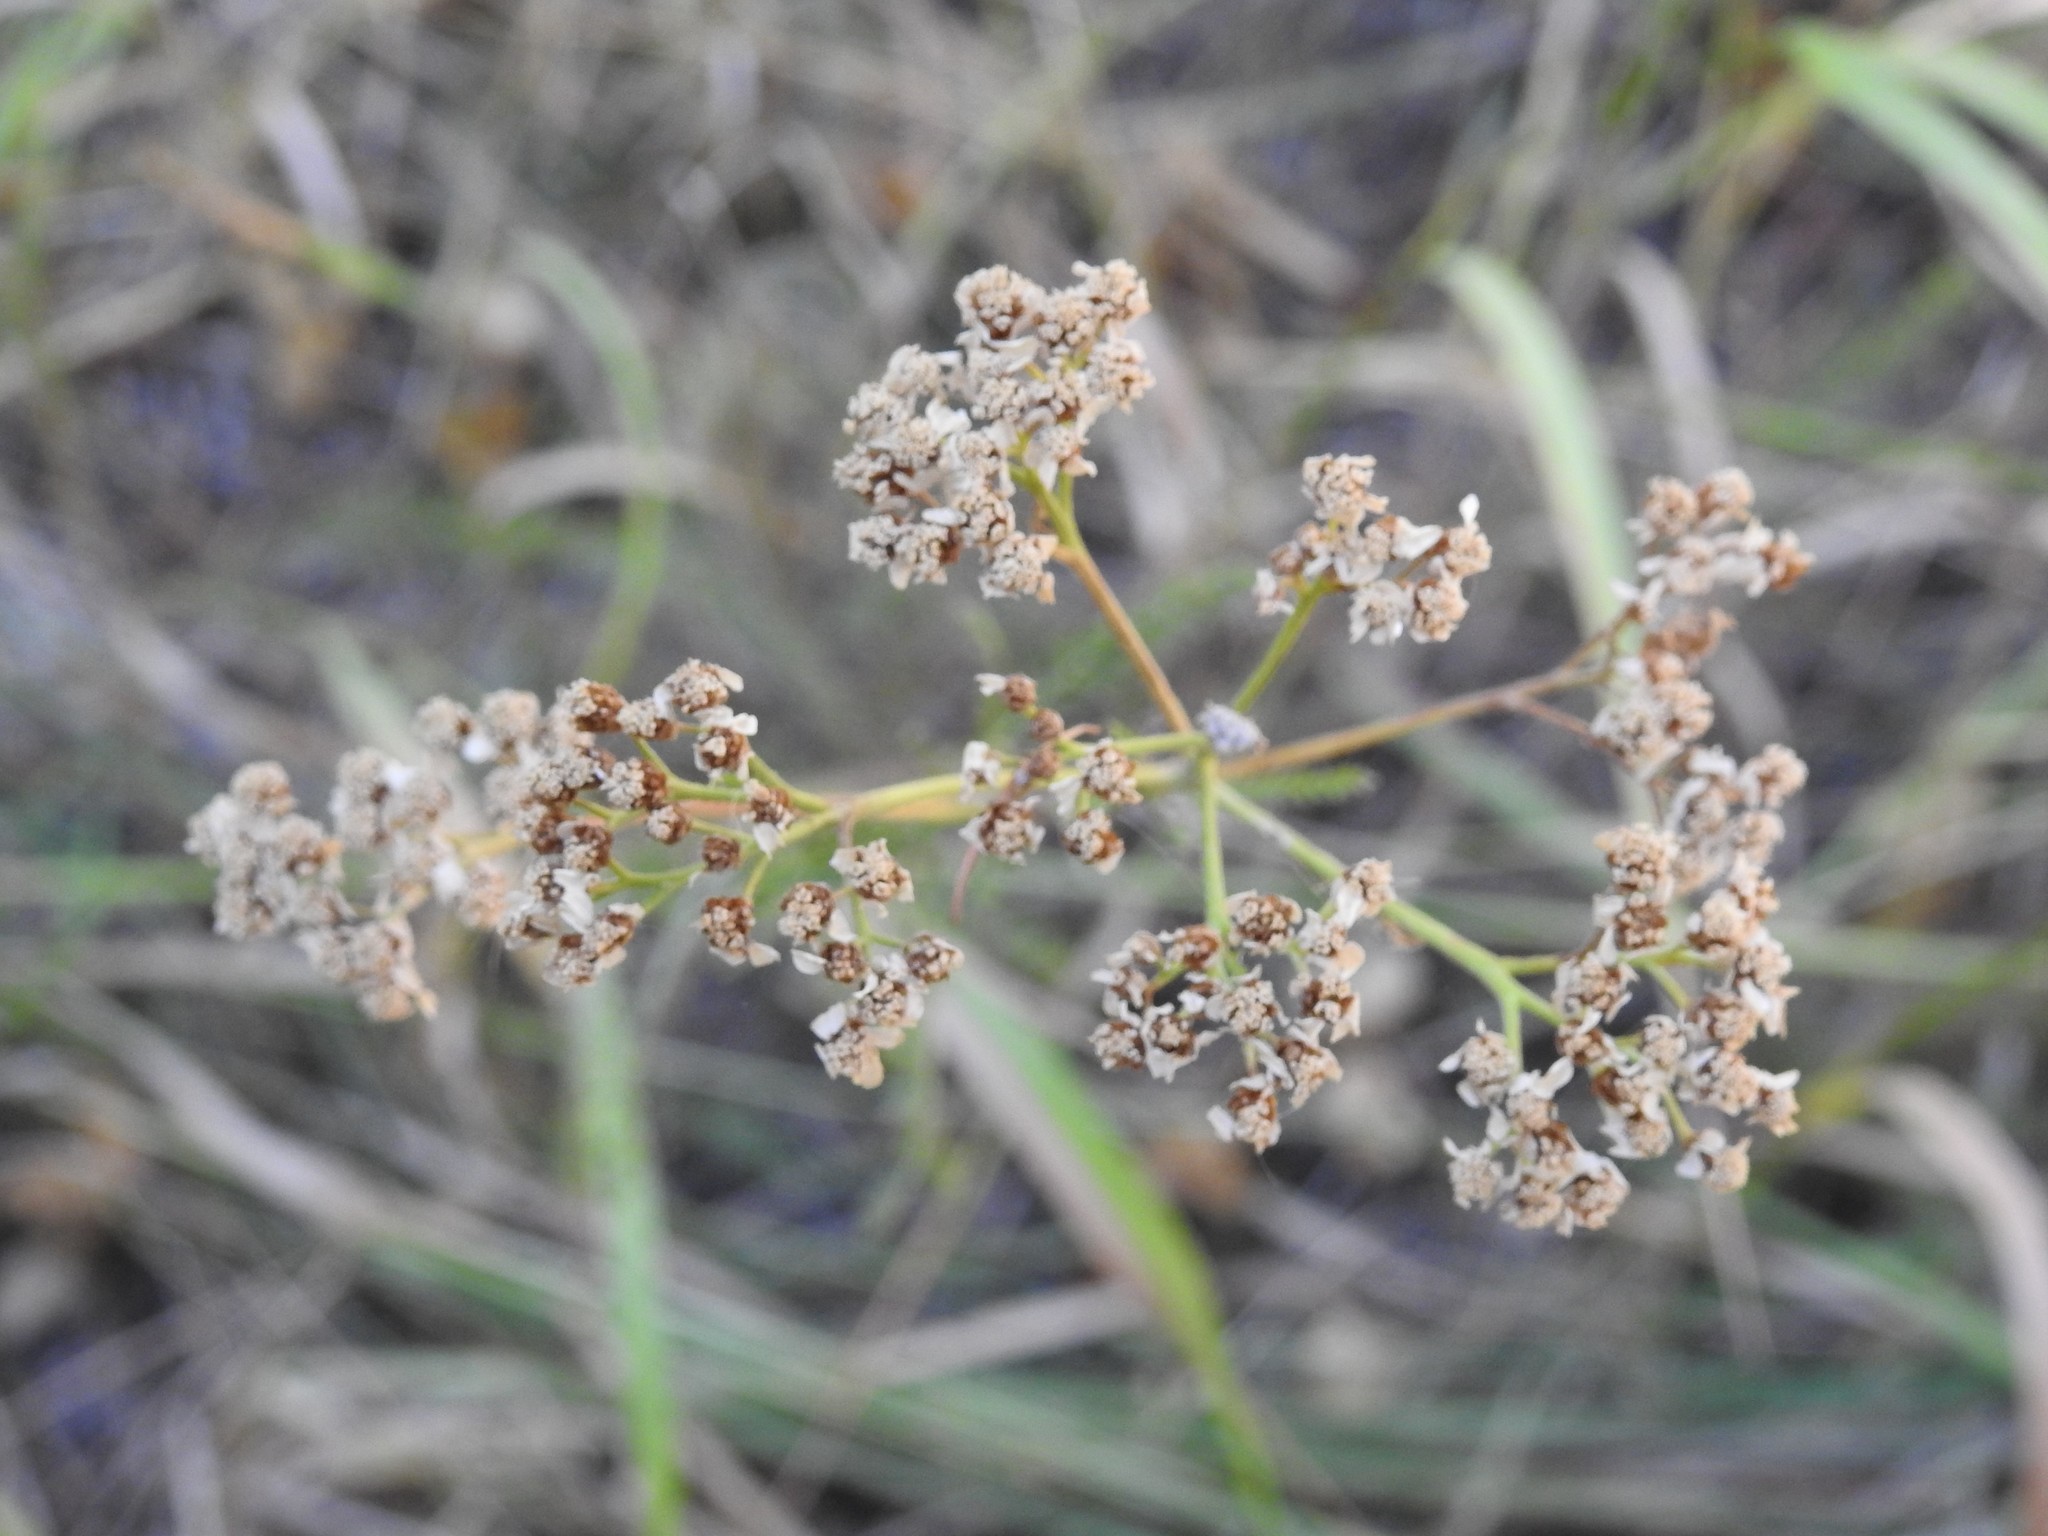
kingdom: Plantae
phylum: Tracheophyta
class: Magnoliopsida
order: Asterales
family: Asteraceae
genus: Achillea
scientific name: Achillea millefolium
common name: Yarrow
